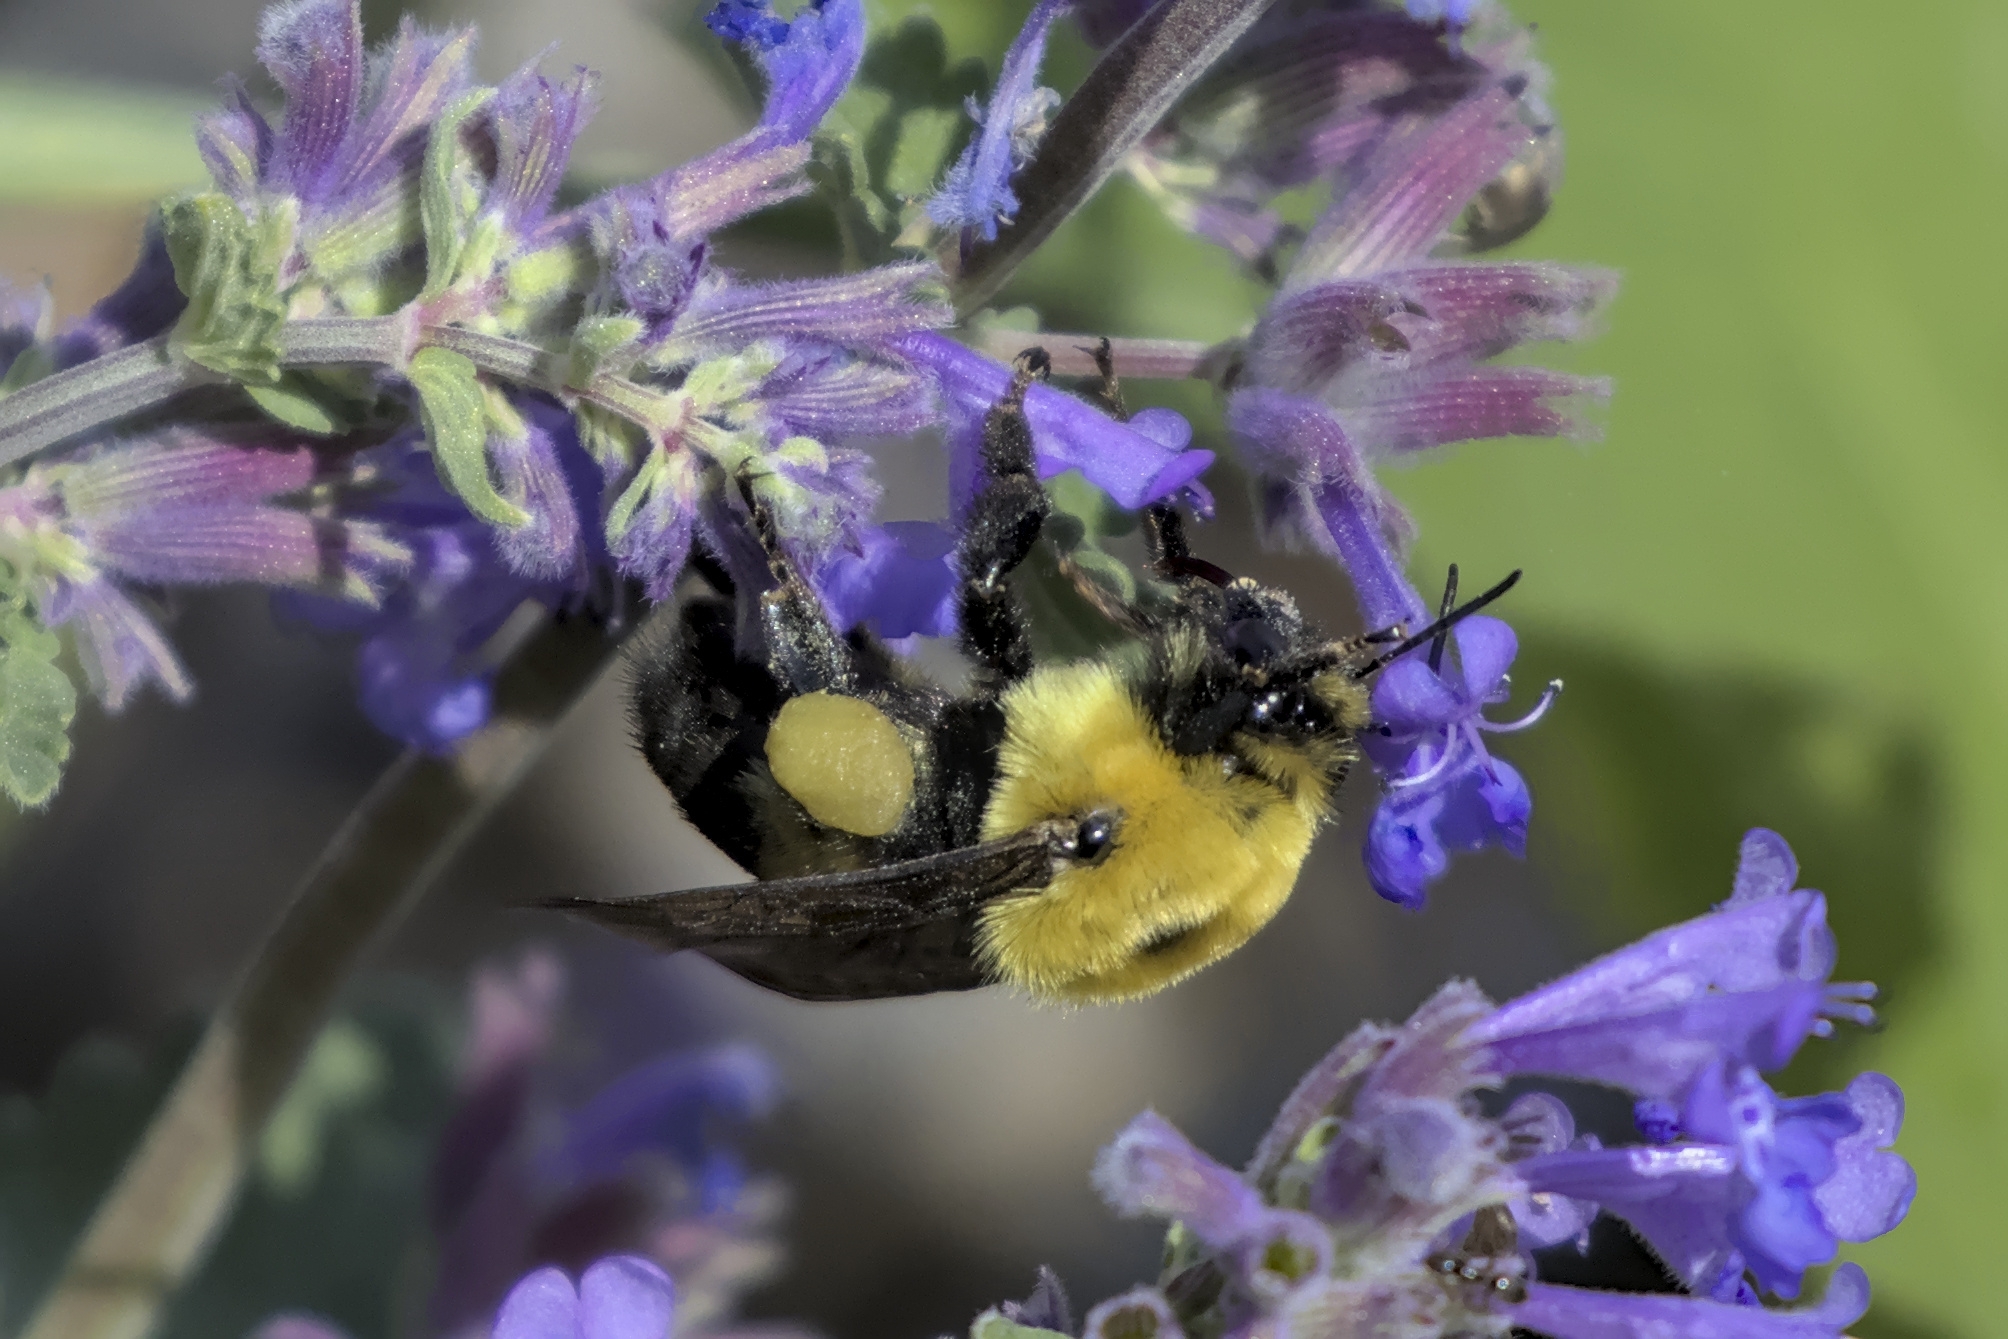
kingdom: Animalia
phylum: Arthropoda
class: Insecta
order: Hymenoptera
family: Apidae
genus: Bombus
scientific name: Bombus griseocollis
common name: Brown-belted bumble bee
